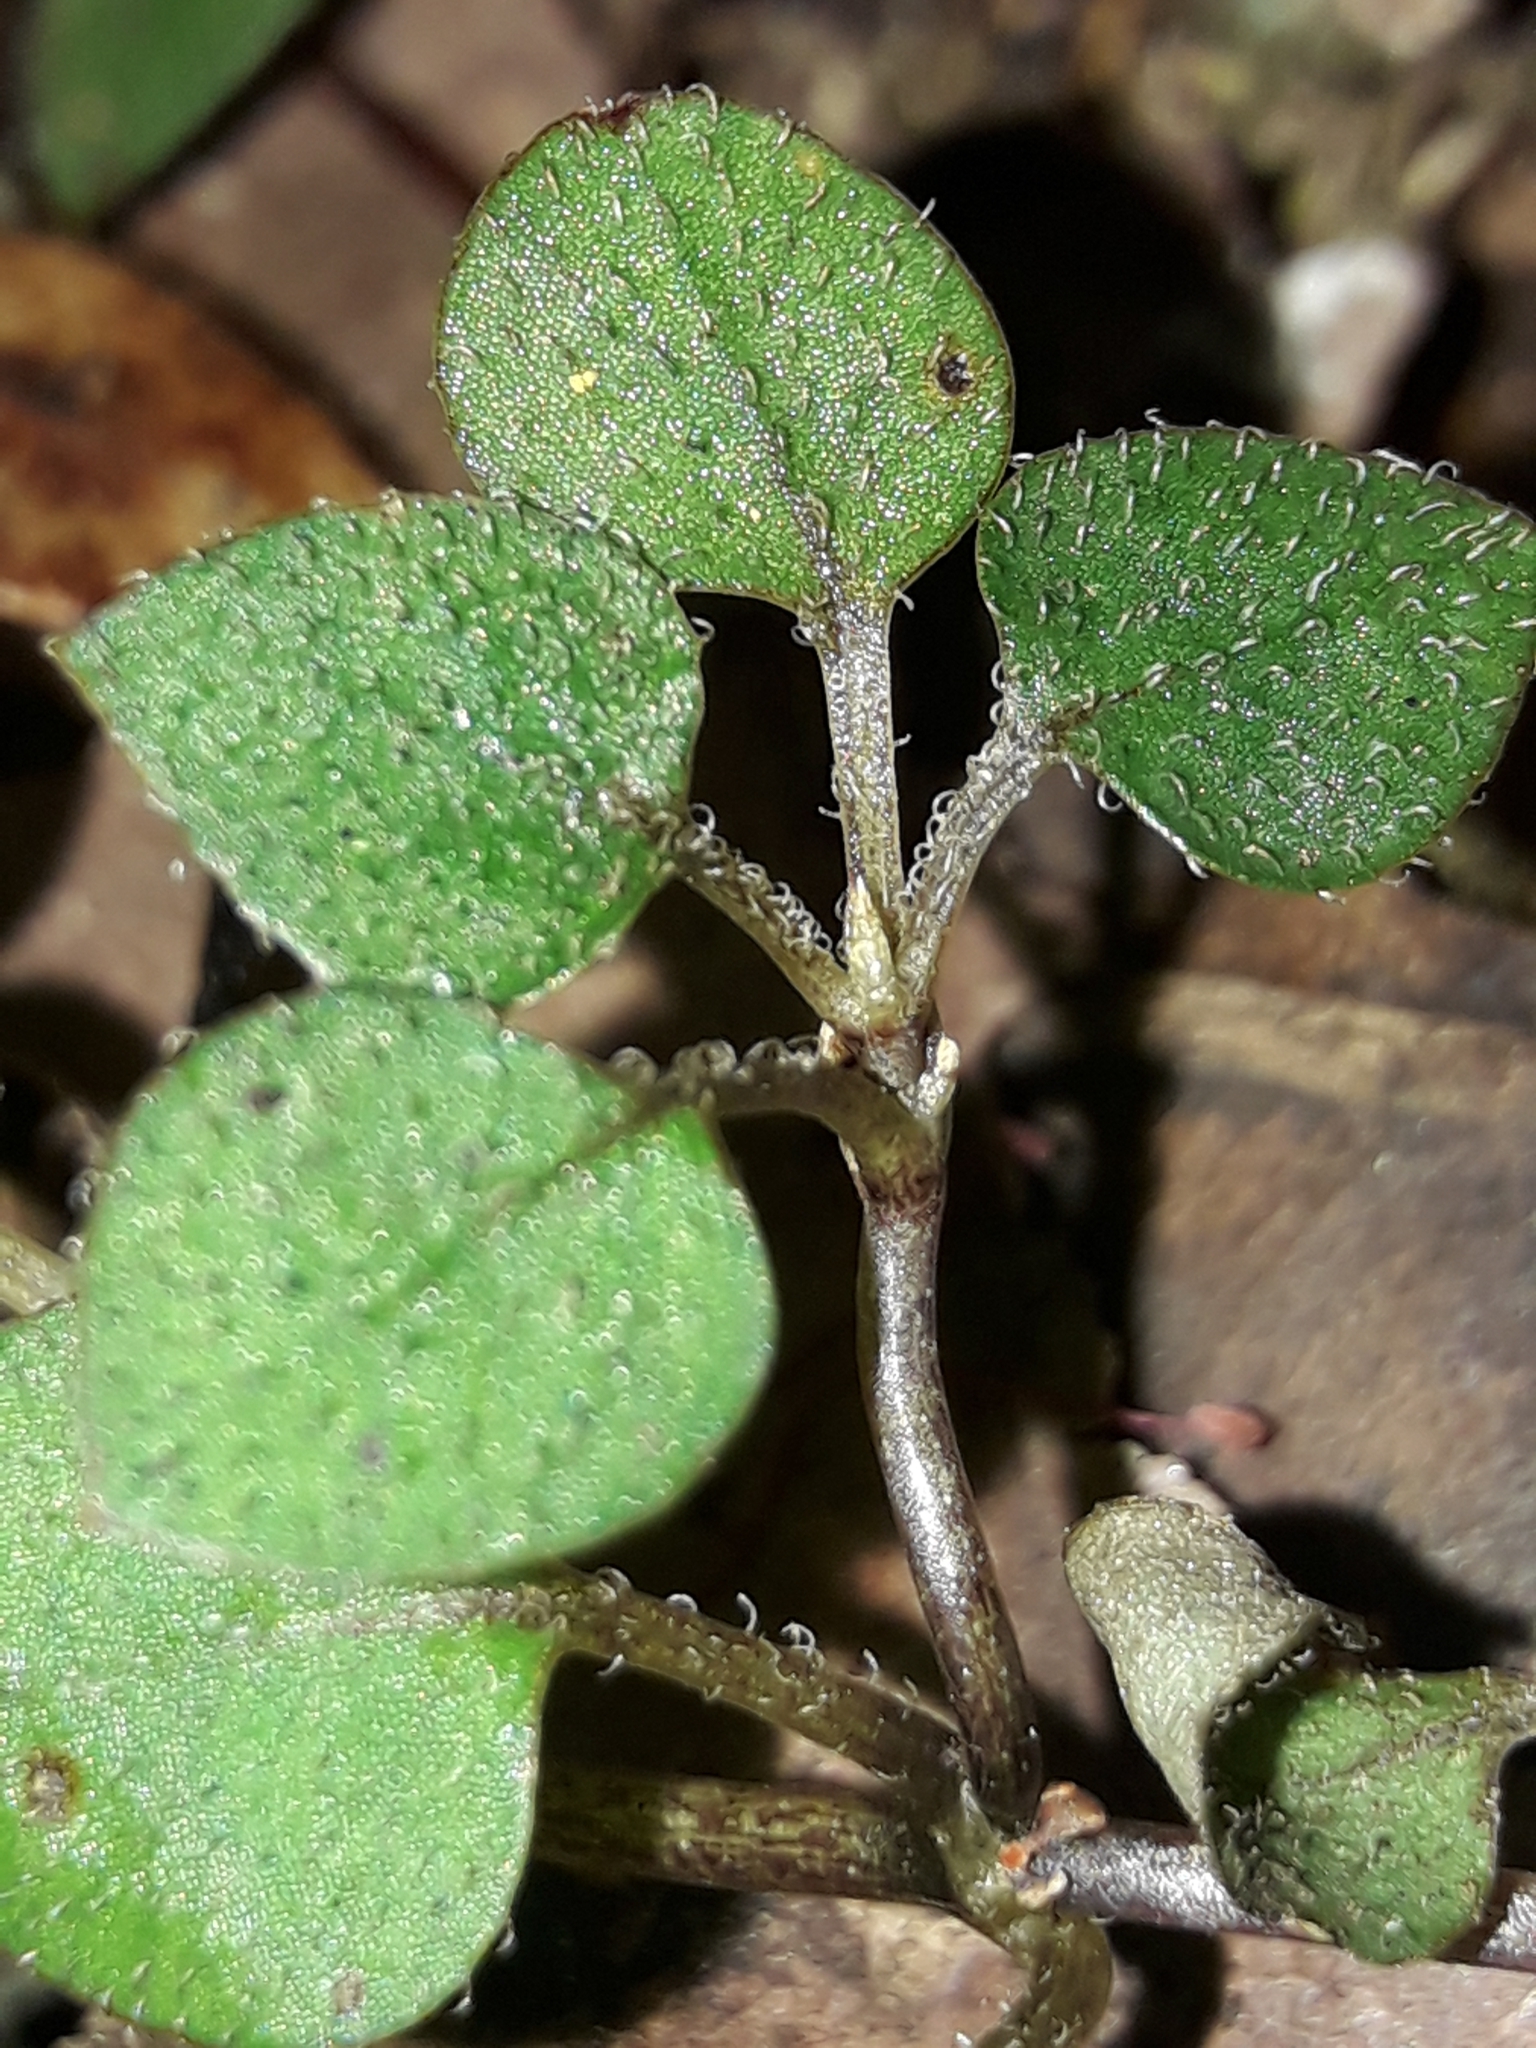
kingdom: Plantae
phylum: Tracheophyta
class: Magnoliopsida
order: Gentianales
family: Rubiaceae
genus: Nertera
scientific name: Nertera dichondrifolia
